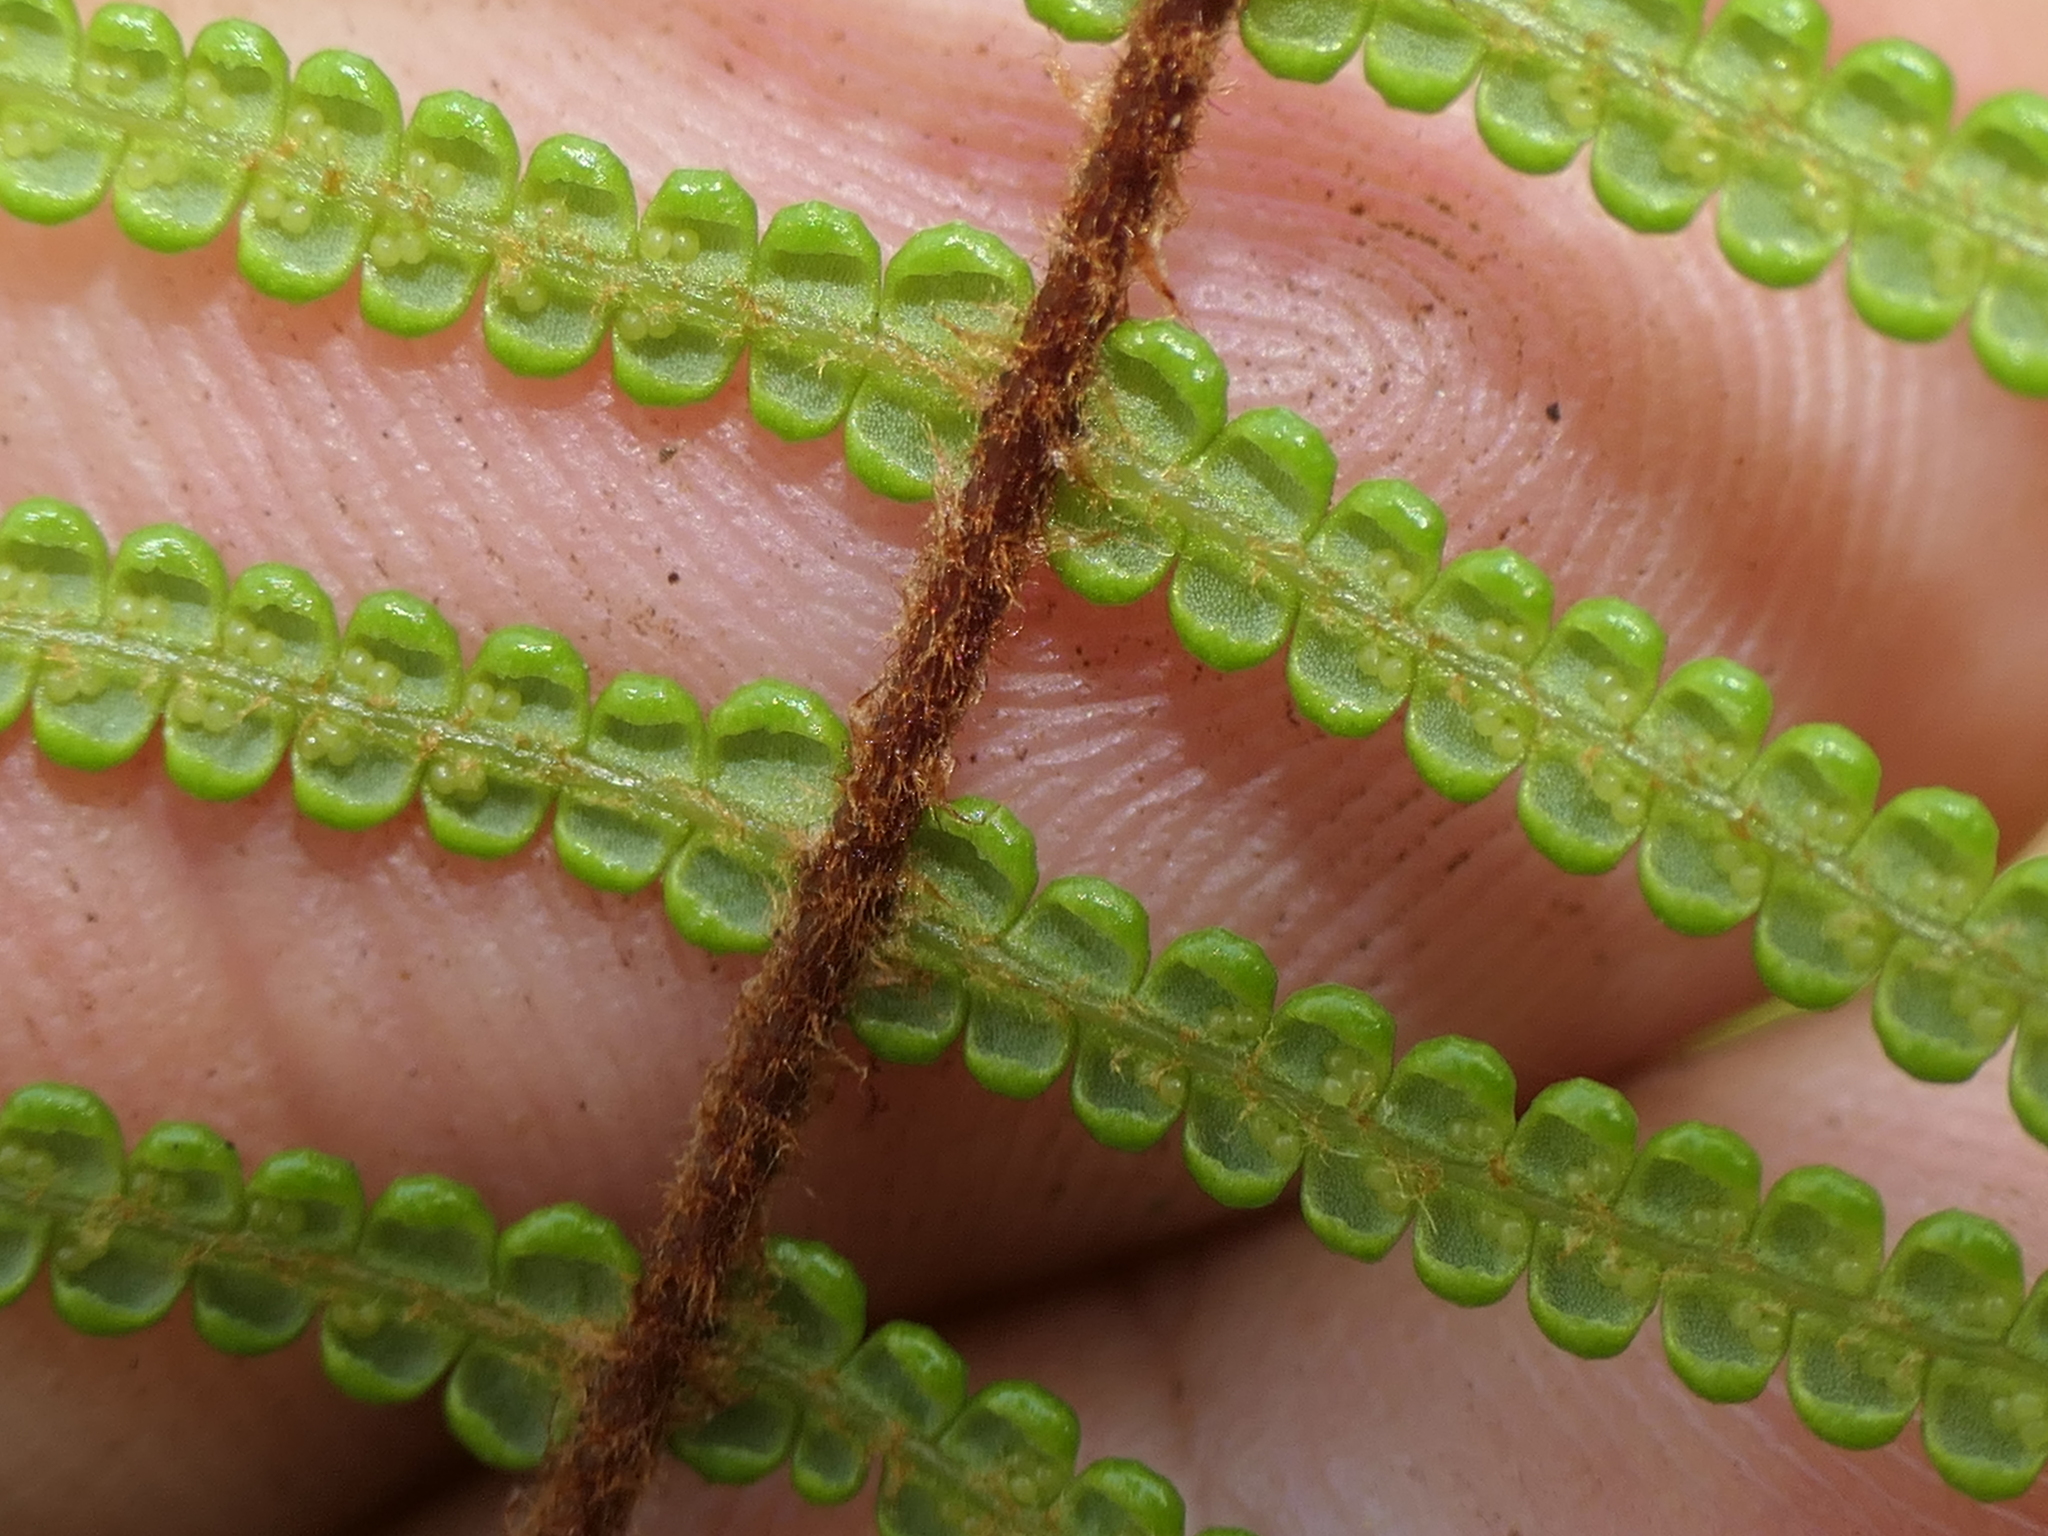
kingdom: Plantae
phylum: Tracheophyta
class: Polypodiopsida
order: Gleicheniales
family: Gleicheniaceae
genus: Gleichenia
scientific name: Gleichenia dicarpa
